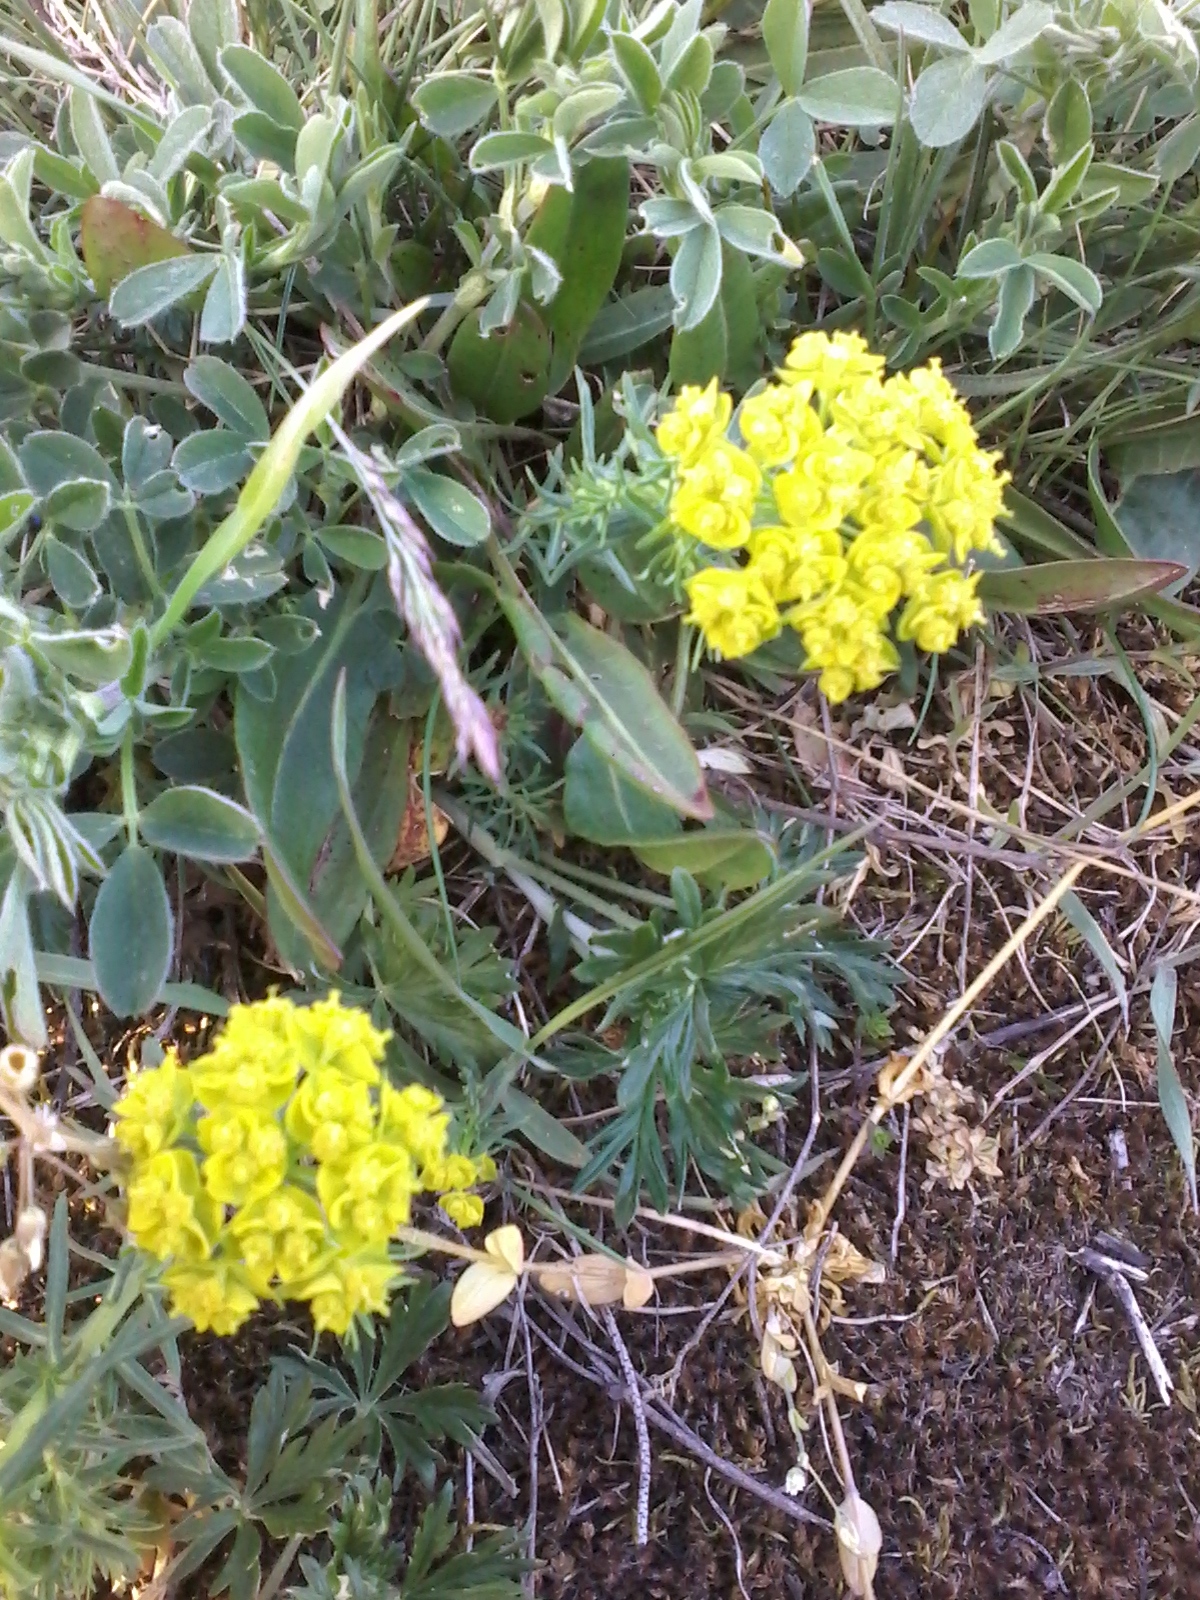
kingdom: Plantae
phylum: Tracheophyta
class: Magnoliopsida
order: Malpighiales
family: Euphorbiaceae
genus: Euphorbia
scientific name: Euphorbia cyparissias
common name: Cypress spurge
